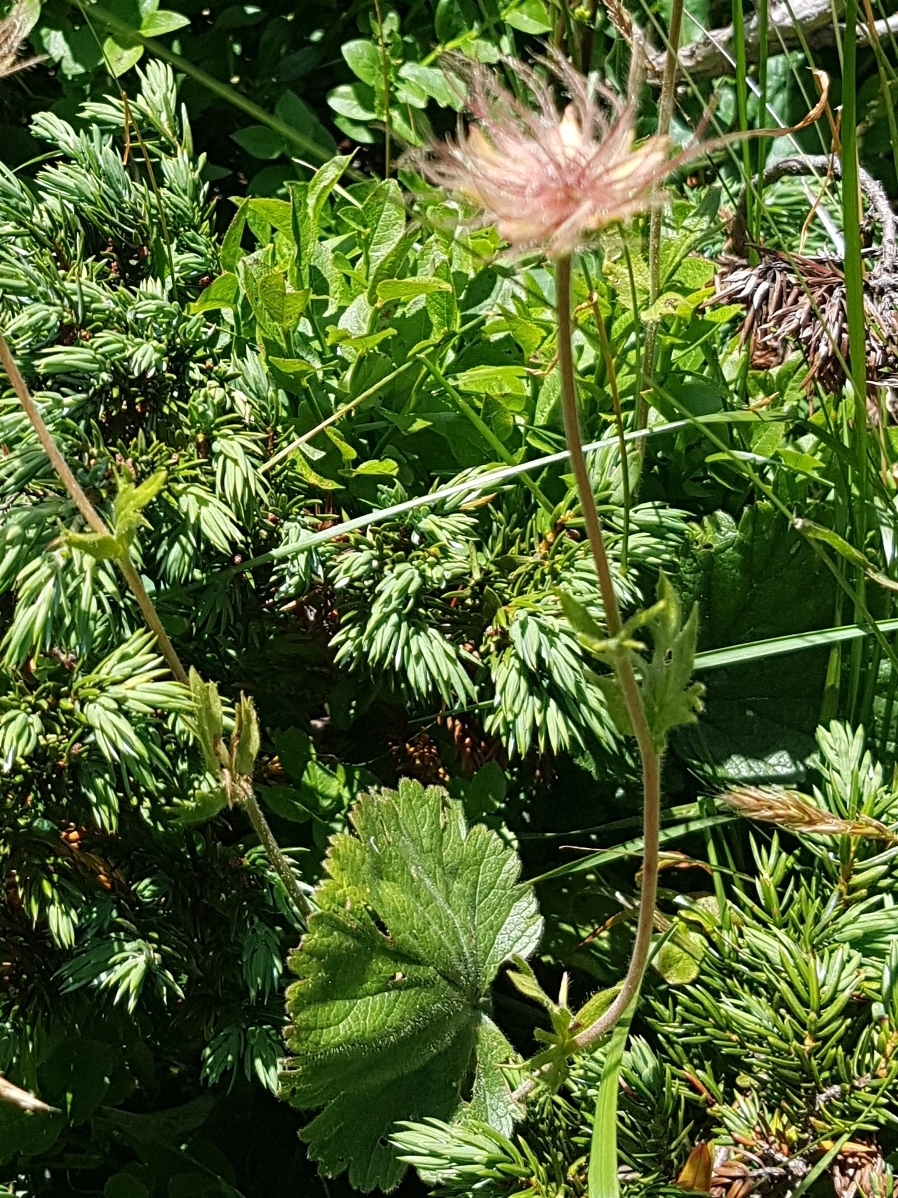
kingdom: Plantae
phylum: Tracheophyta
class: Magnoliopsida
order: Rosales
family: Rosaceae
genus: Geum
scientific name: Geum montanum
